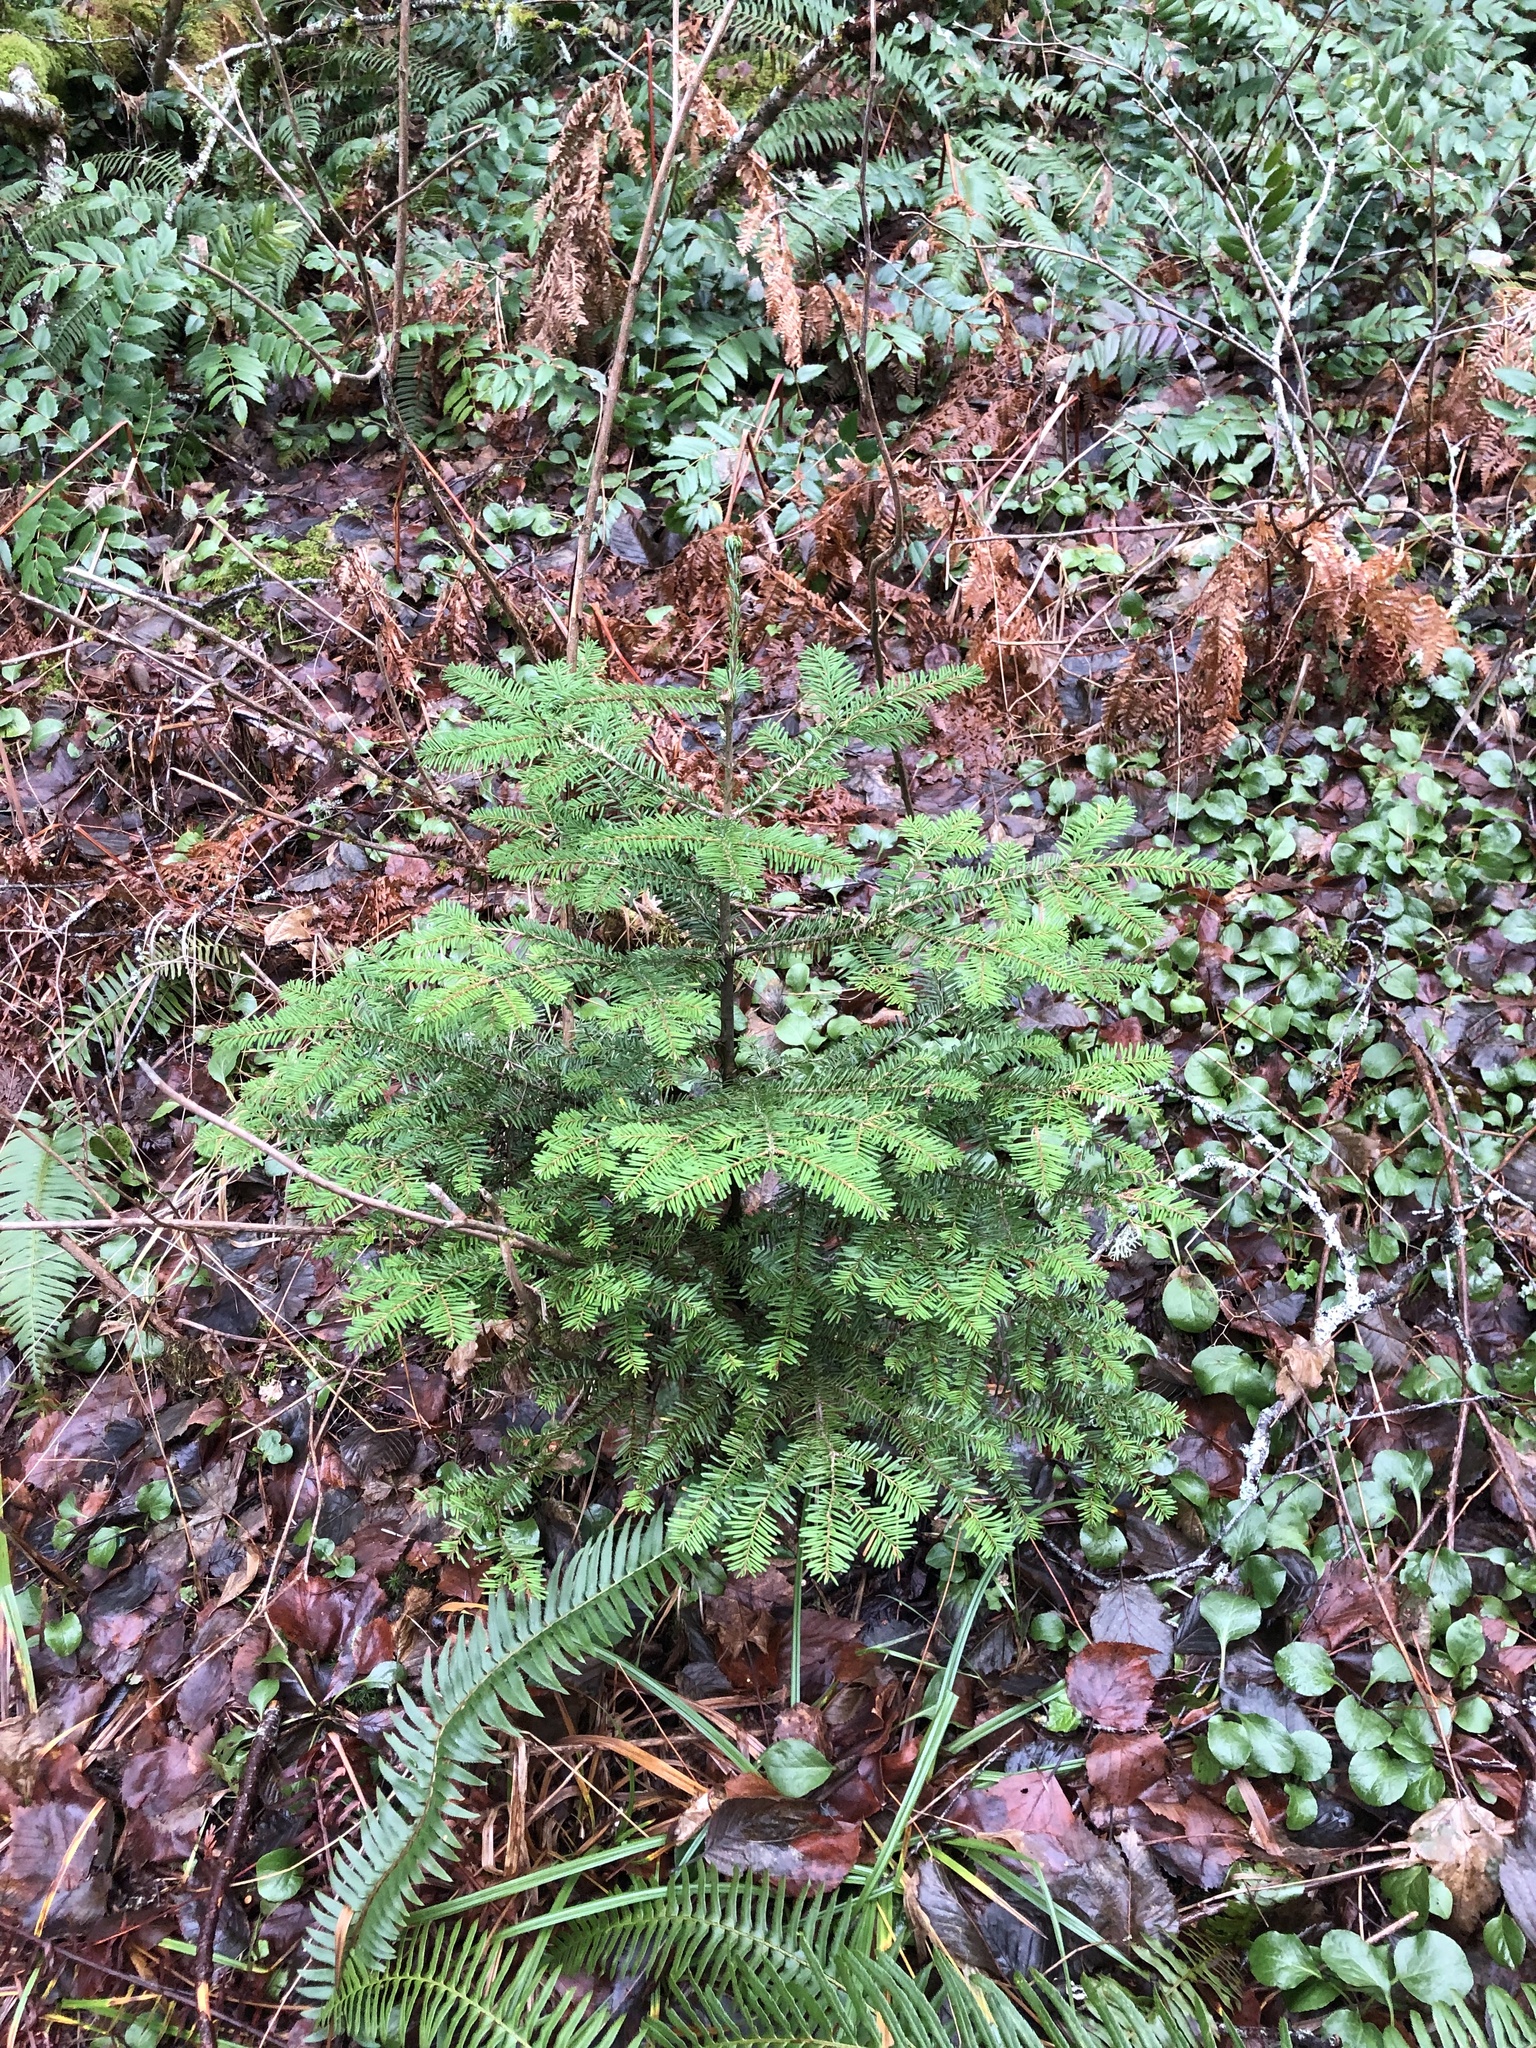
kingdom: Plantae
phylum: Tracheophyta
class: Pinopsida
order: Pinales
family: Pinaceae
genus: Abies
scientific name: Abies amabilis
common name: Pacific silver fir
